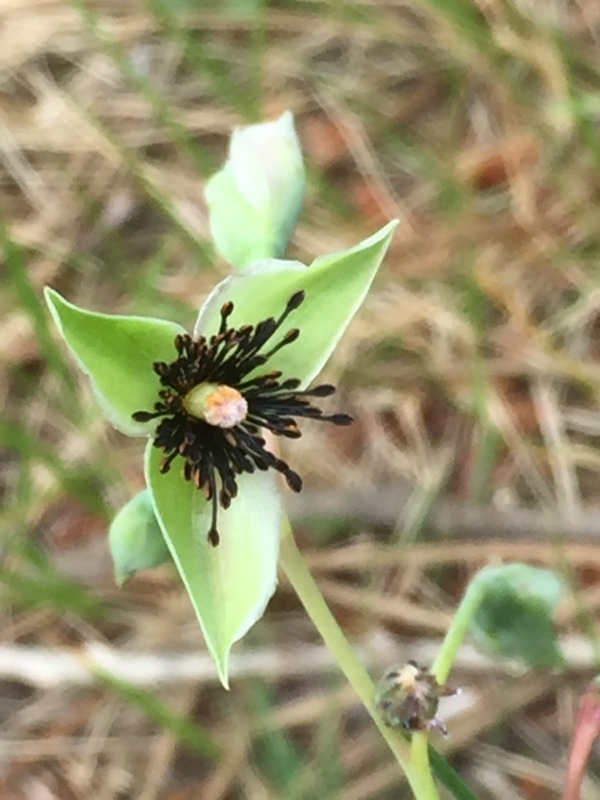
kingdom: Plantae
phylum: Tracheophyta
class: Magnoliopsida
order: Malvales
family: Cistaceae
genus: Tuberaria
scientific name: Tuberaria globulariifolia
